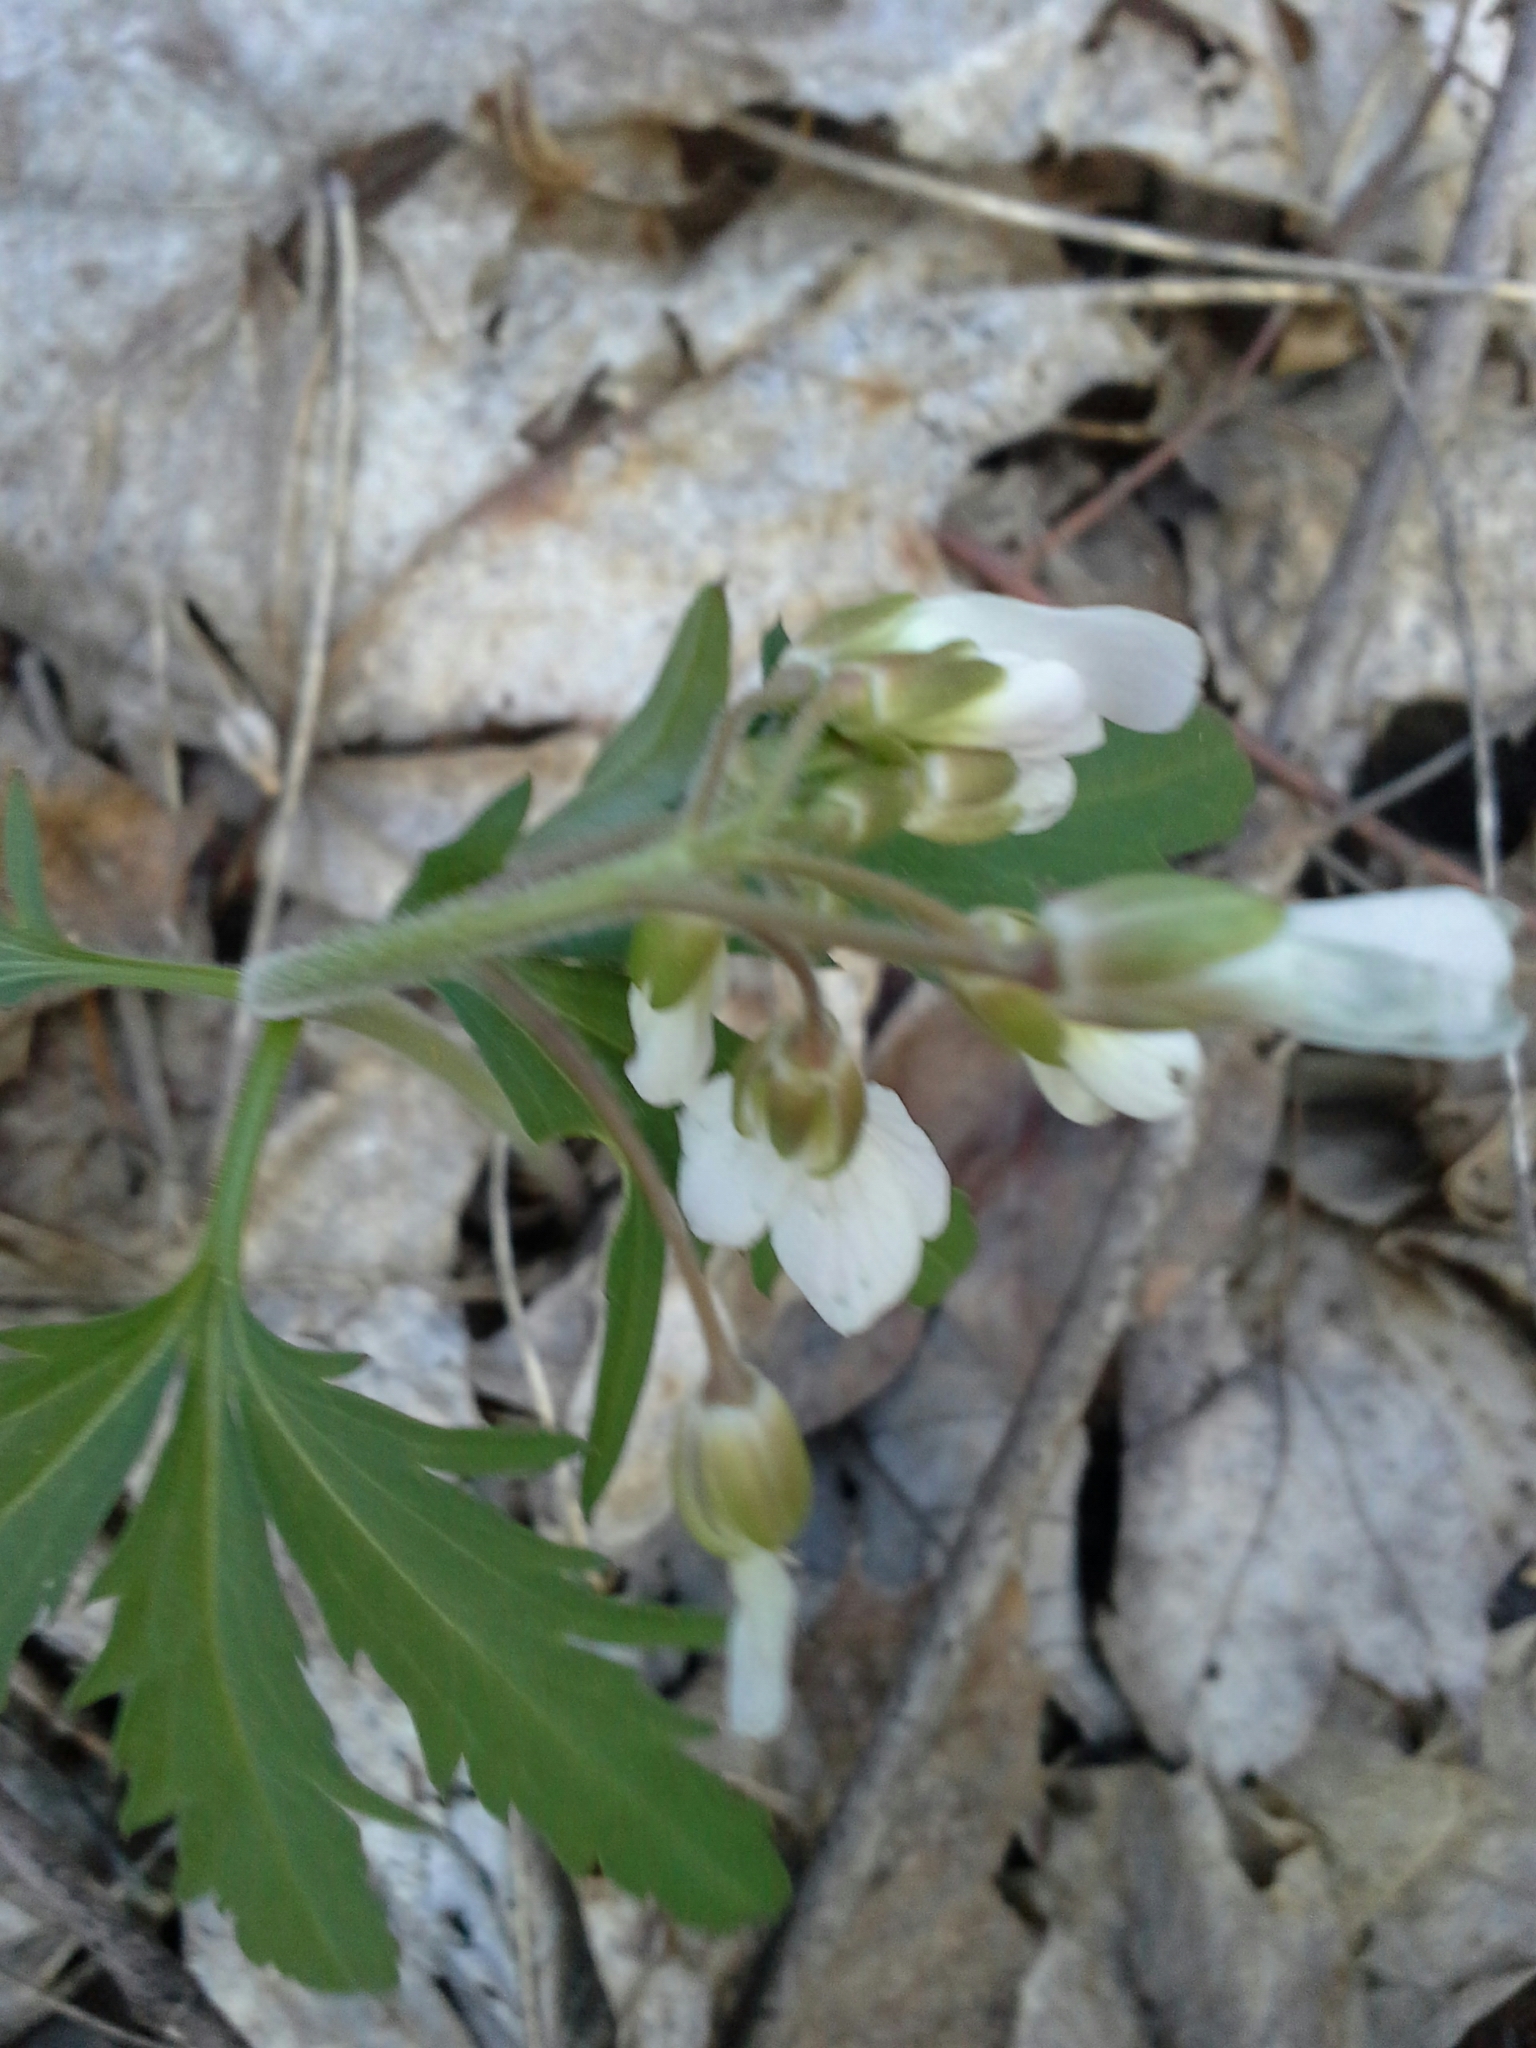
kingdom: Plantae
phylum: Tracheophyta
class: Magnoliopsida
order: Brassicales
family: Brassicaceae
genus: Cardamine
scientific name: Cardamine concatenata
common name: Cut-leaf toothcup
